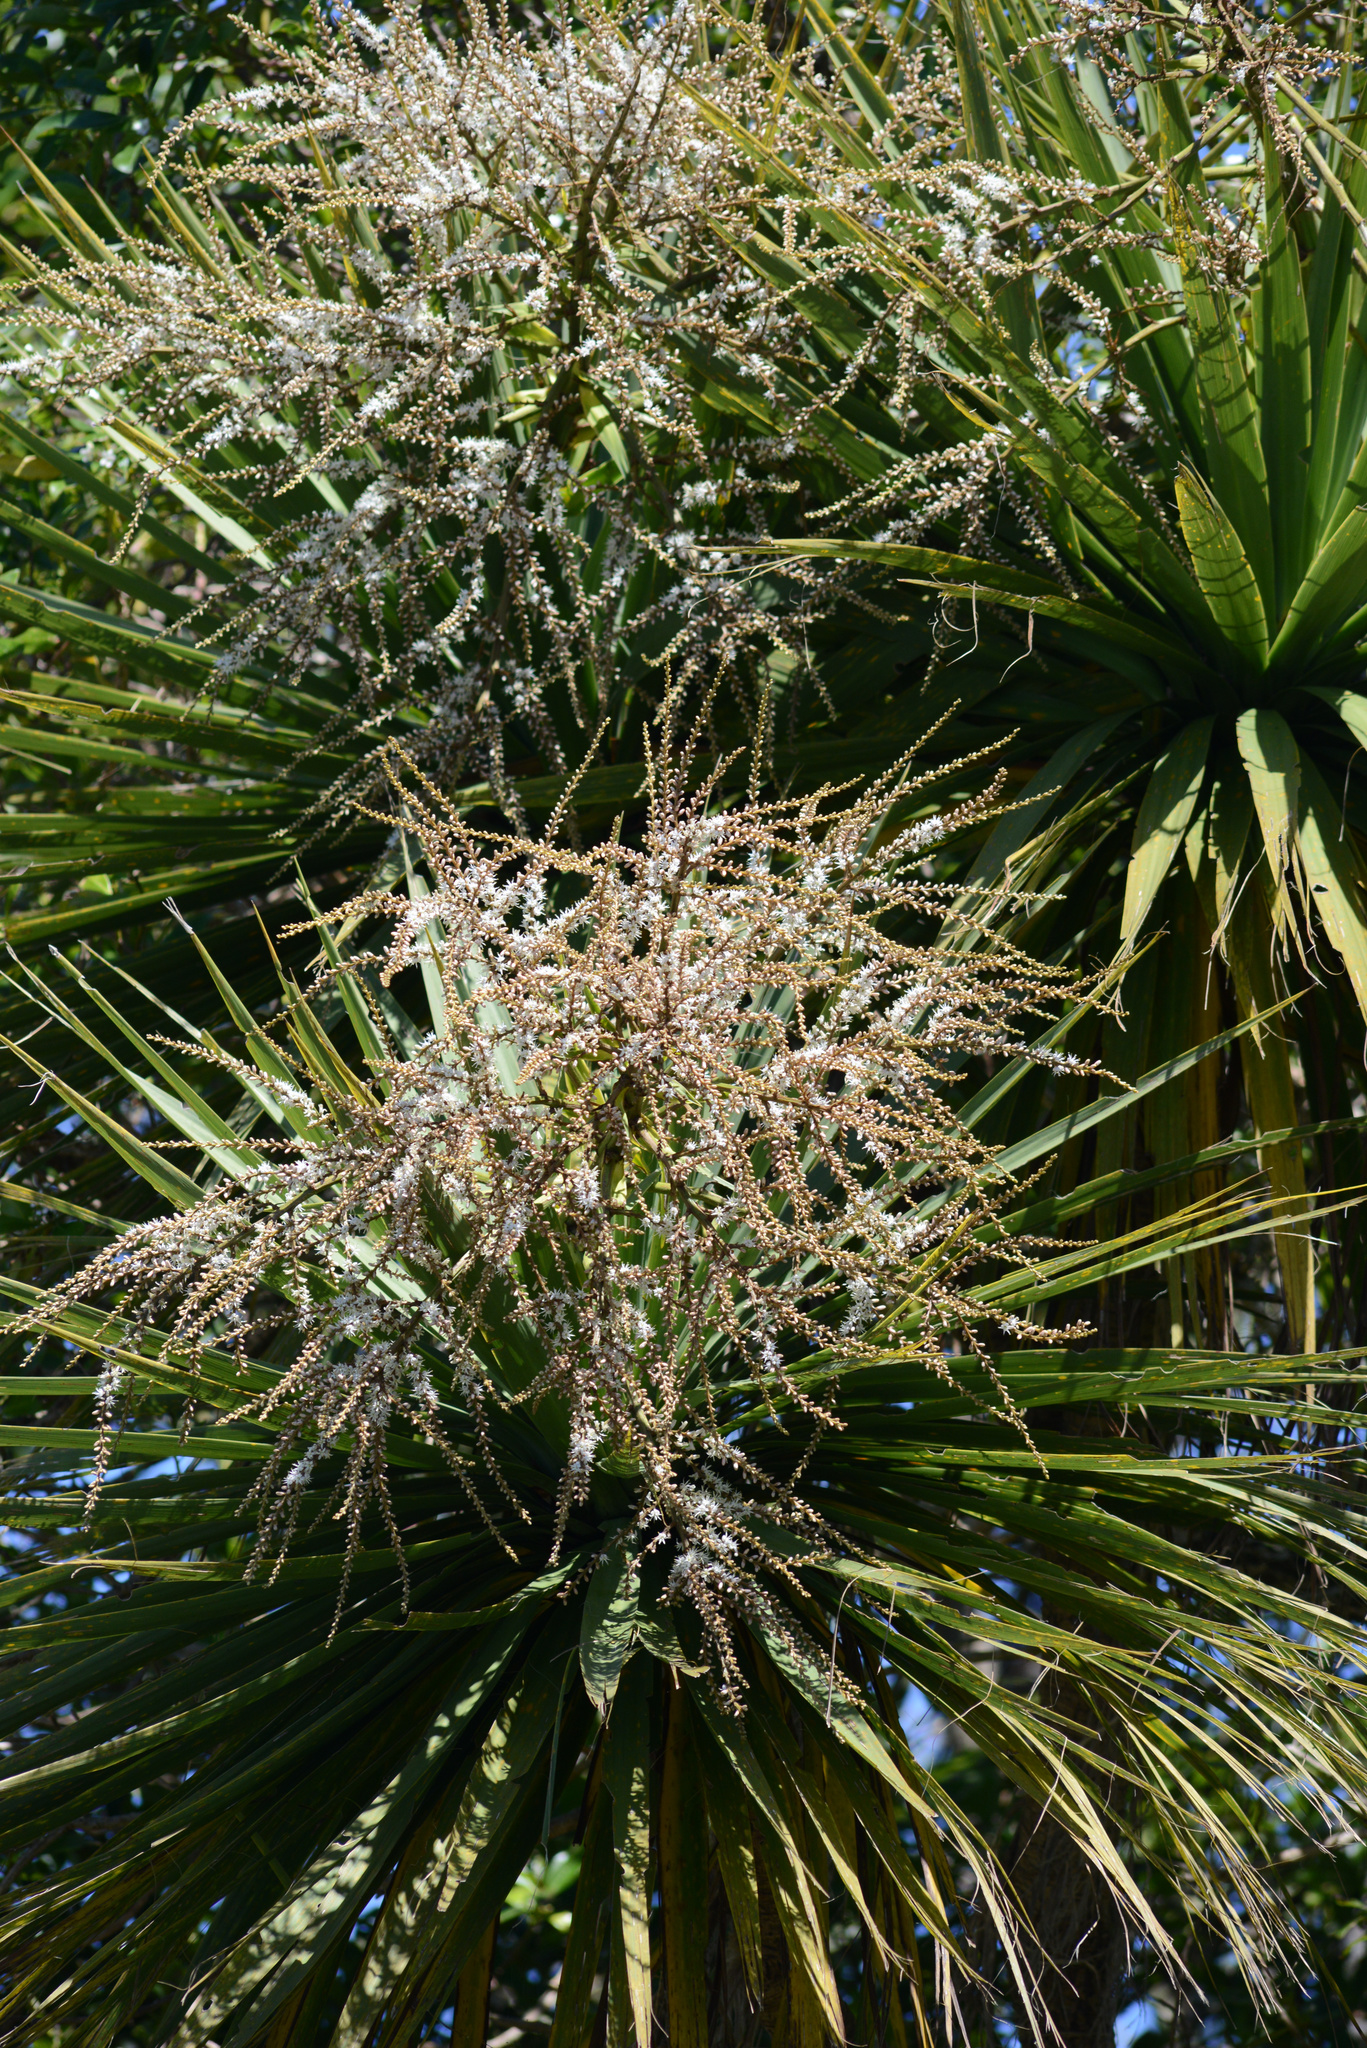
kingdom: Plantae
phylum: Tracheophyta
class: Liliopsida
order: Asparagales
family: Asparagaceae
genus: Cordyline
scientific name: Cordyline australis
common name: Cabbage-palm
